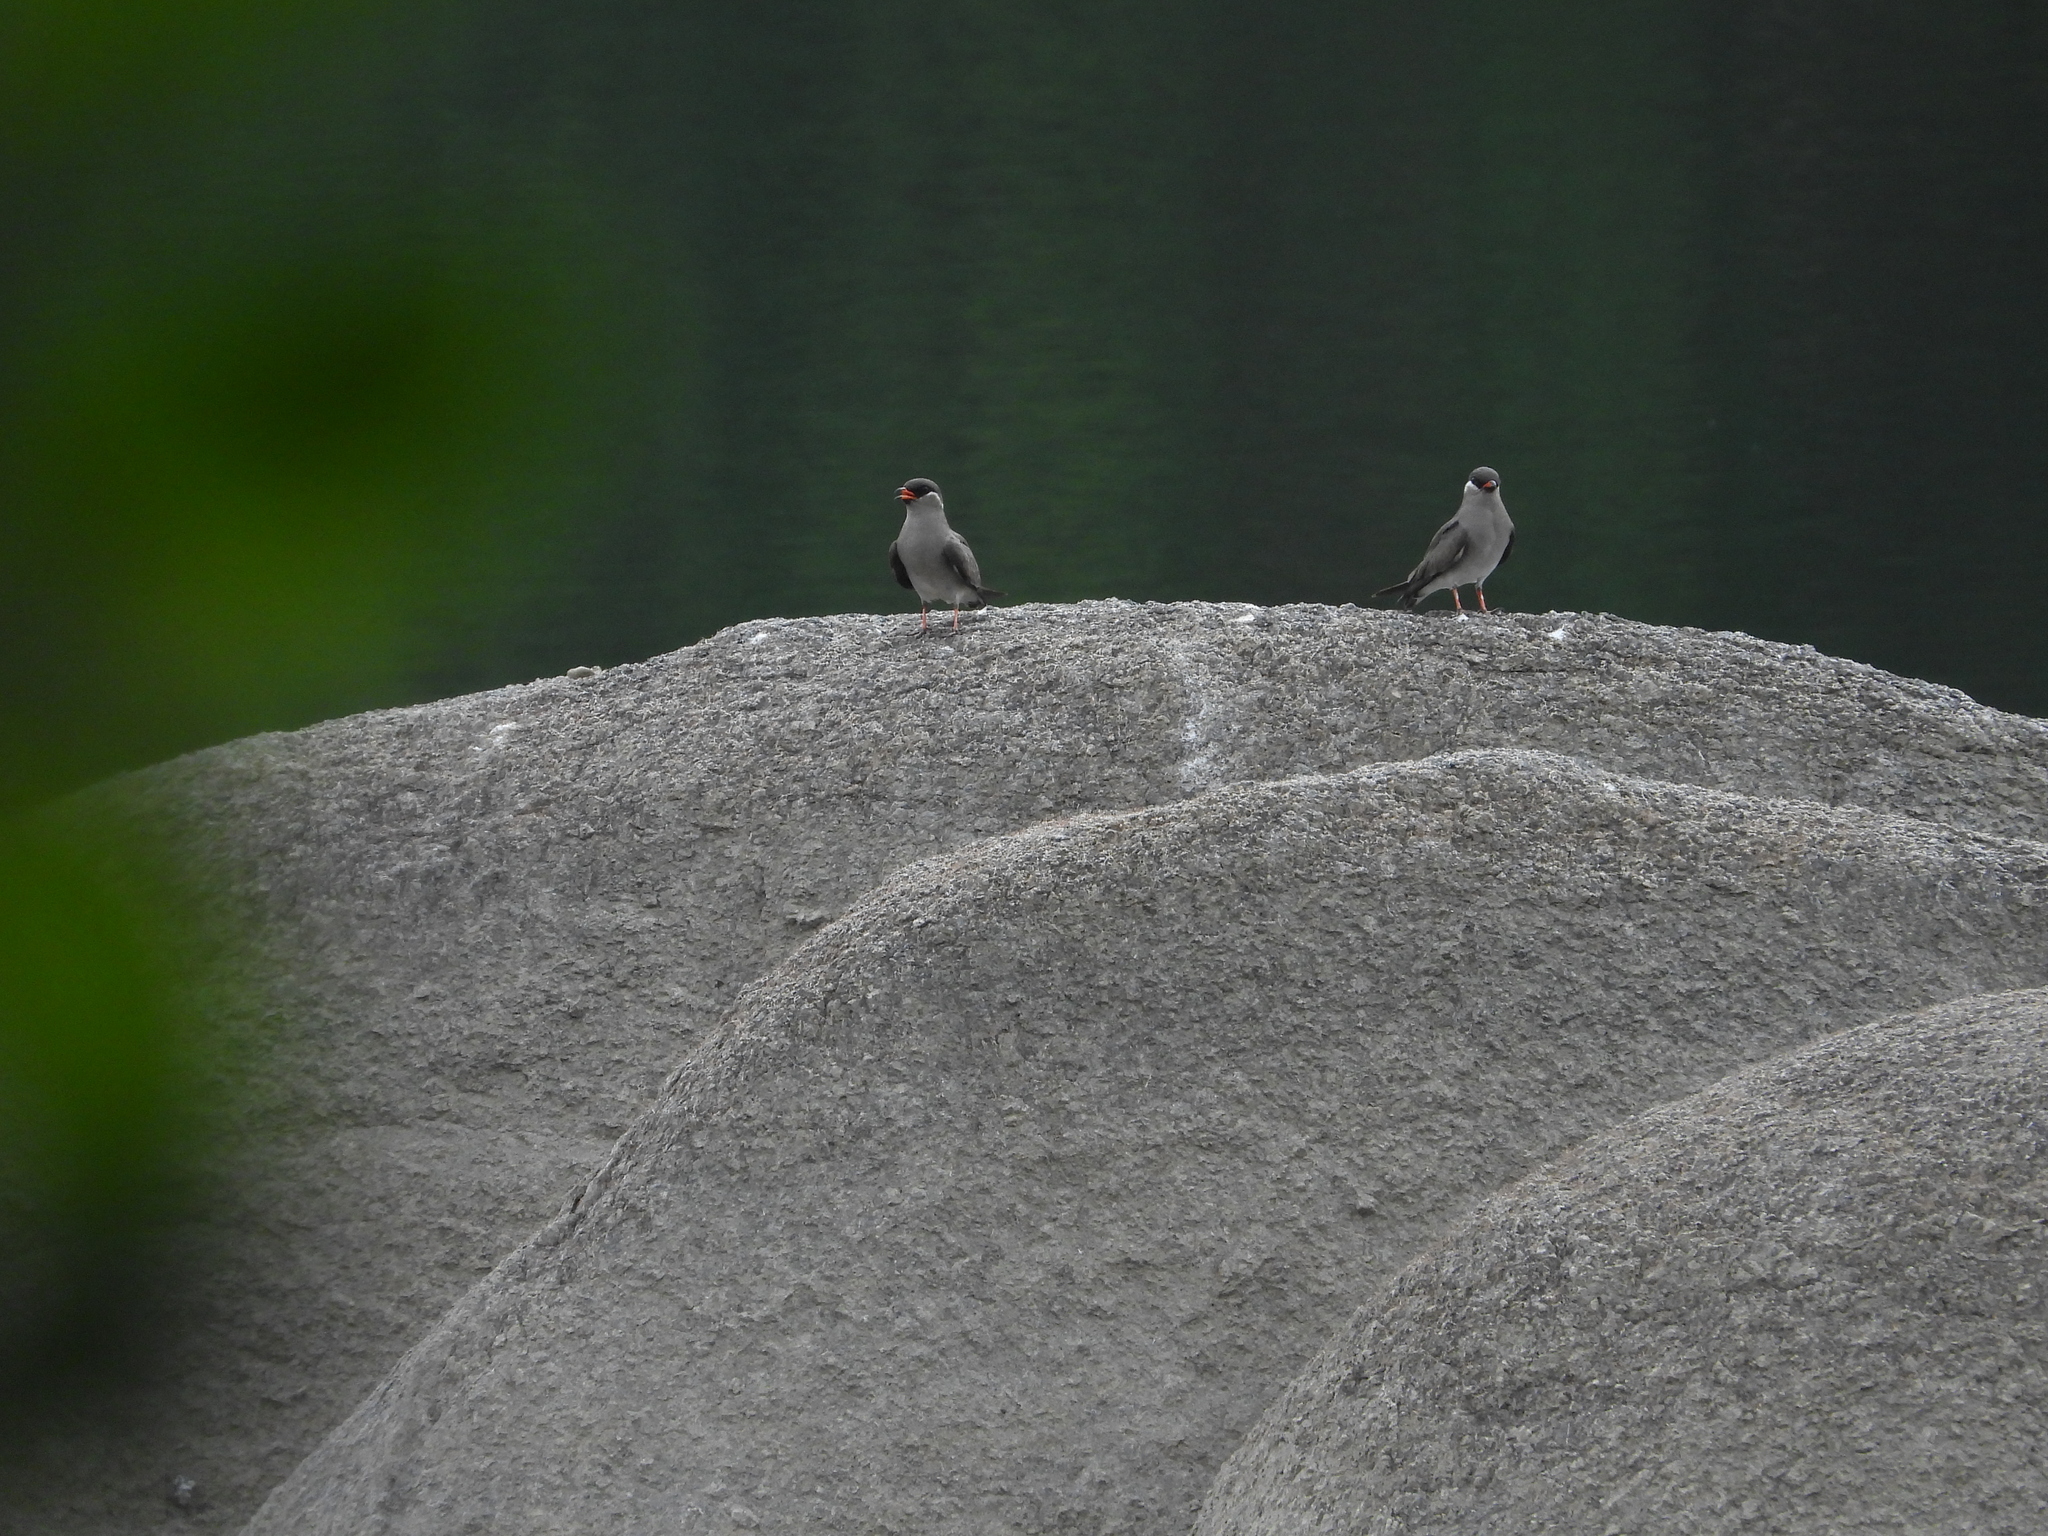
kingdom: Animalia
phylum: Chordata
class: Aves
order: Charadriiformes
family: Glareolidae
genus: Glareola
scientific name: Glareola nuchalis
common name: Rock pratincole
